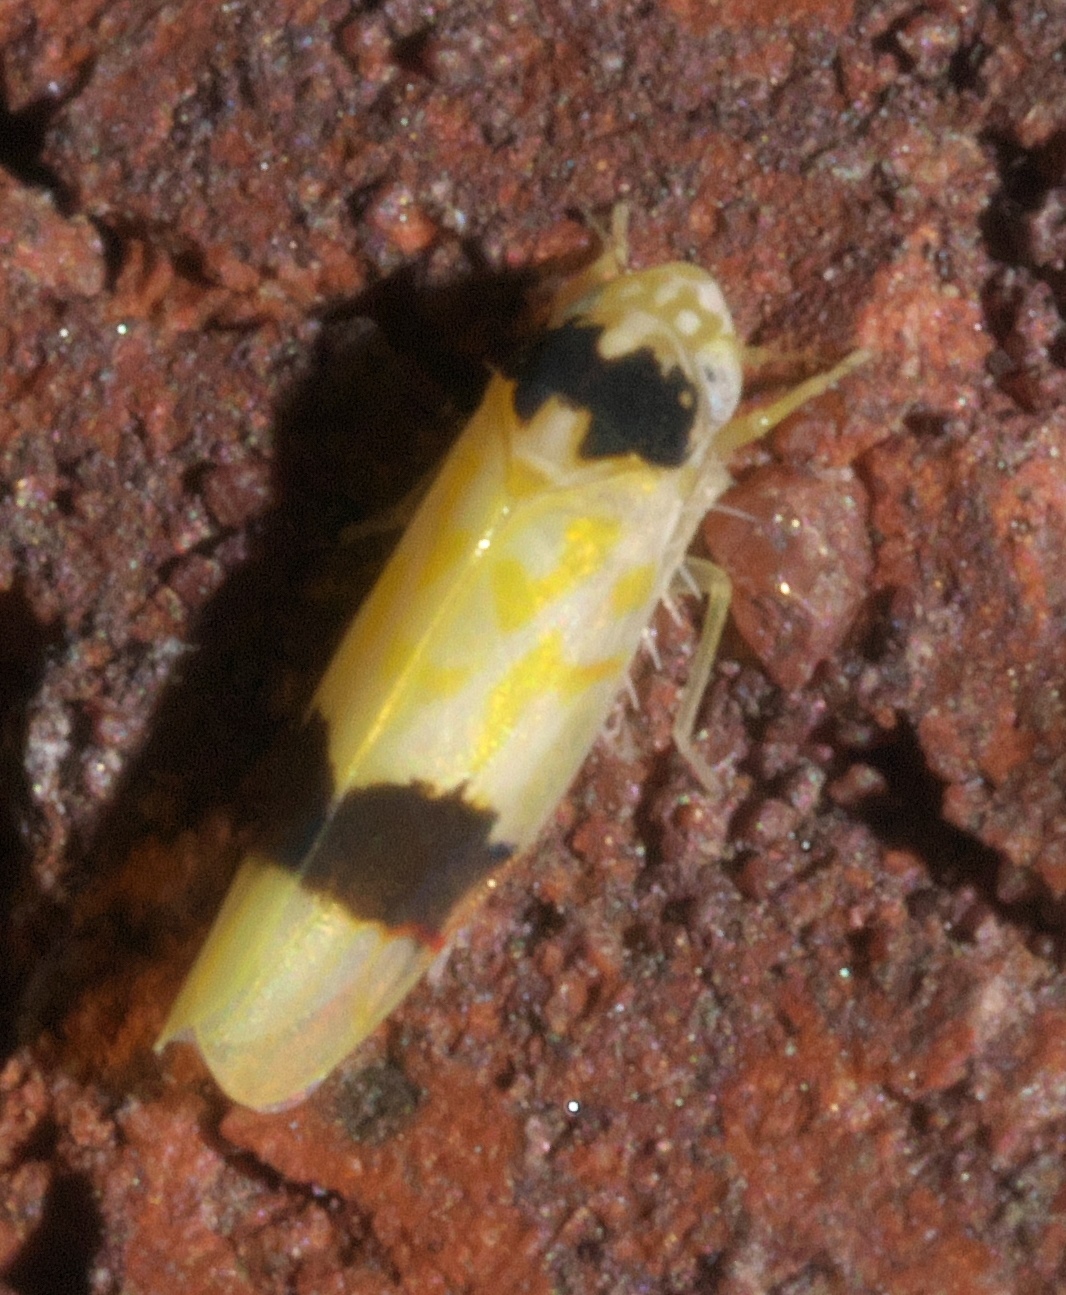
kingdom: Animalia
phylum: Arthropoda
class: Insecta
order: Hemiptera
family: Cicadellidae
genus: Eratoneura
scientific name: Eratoneura morgani
